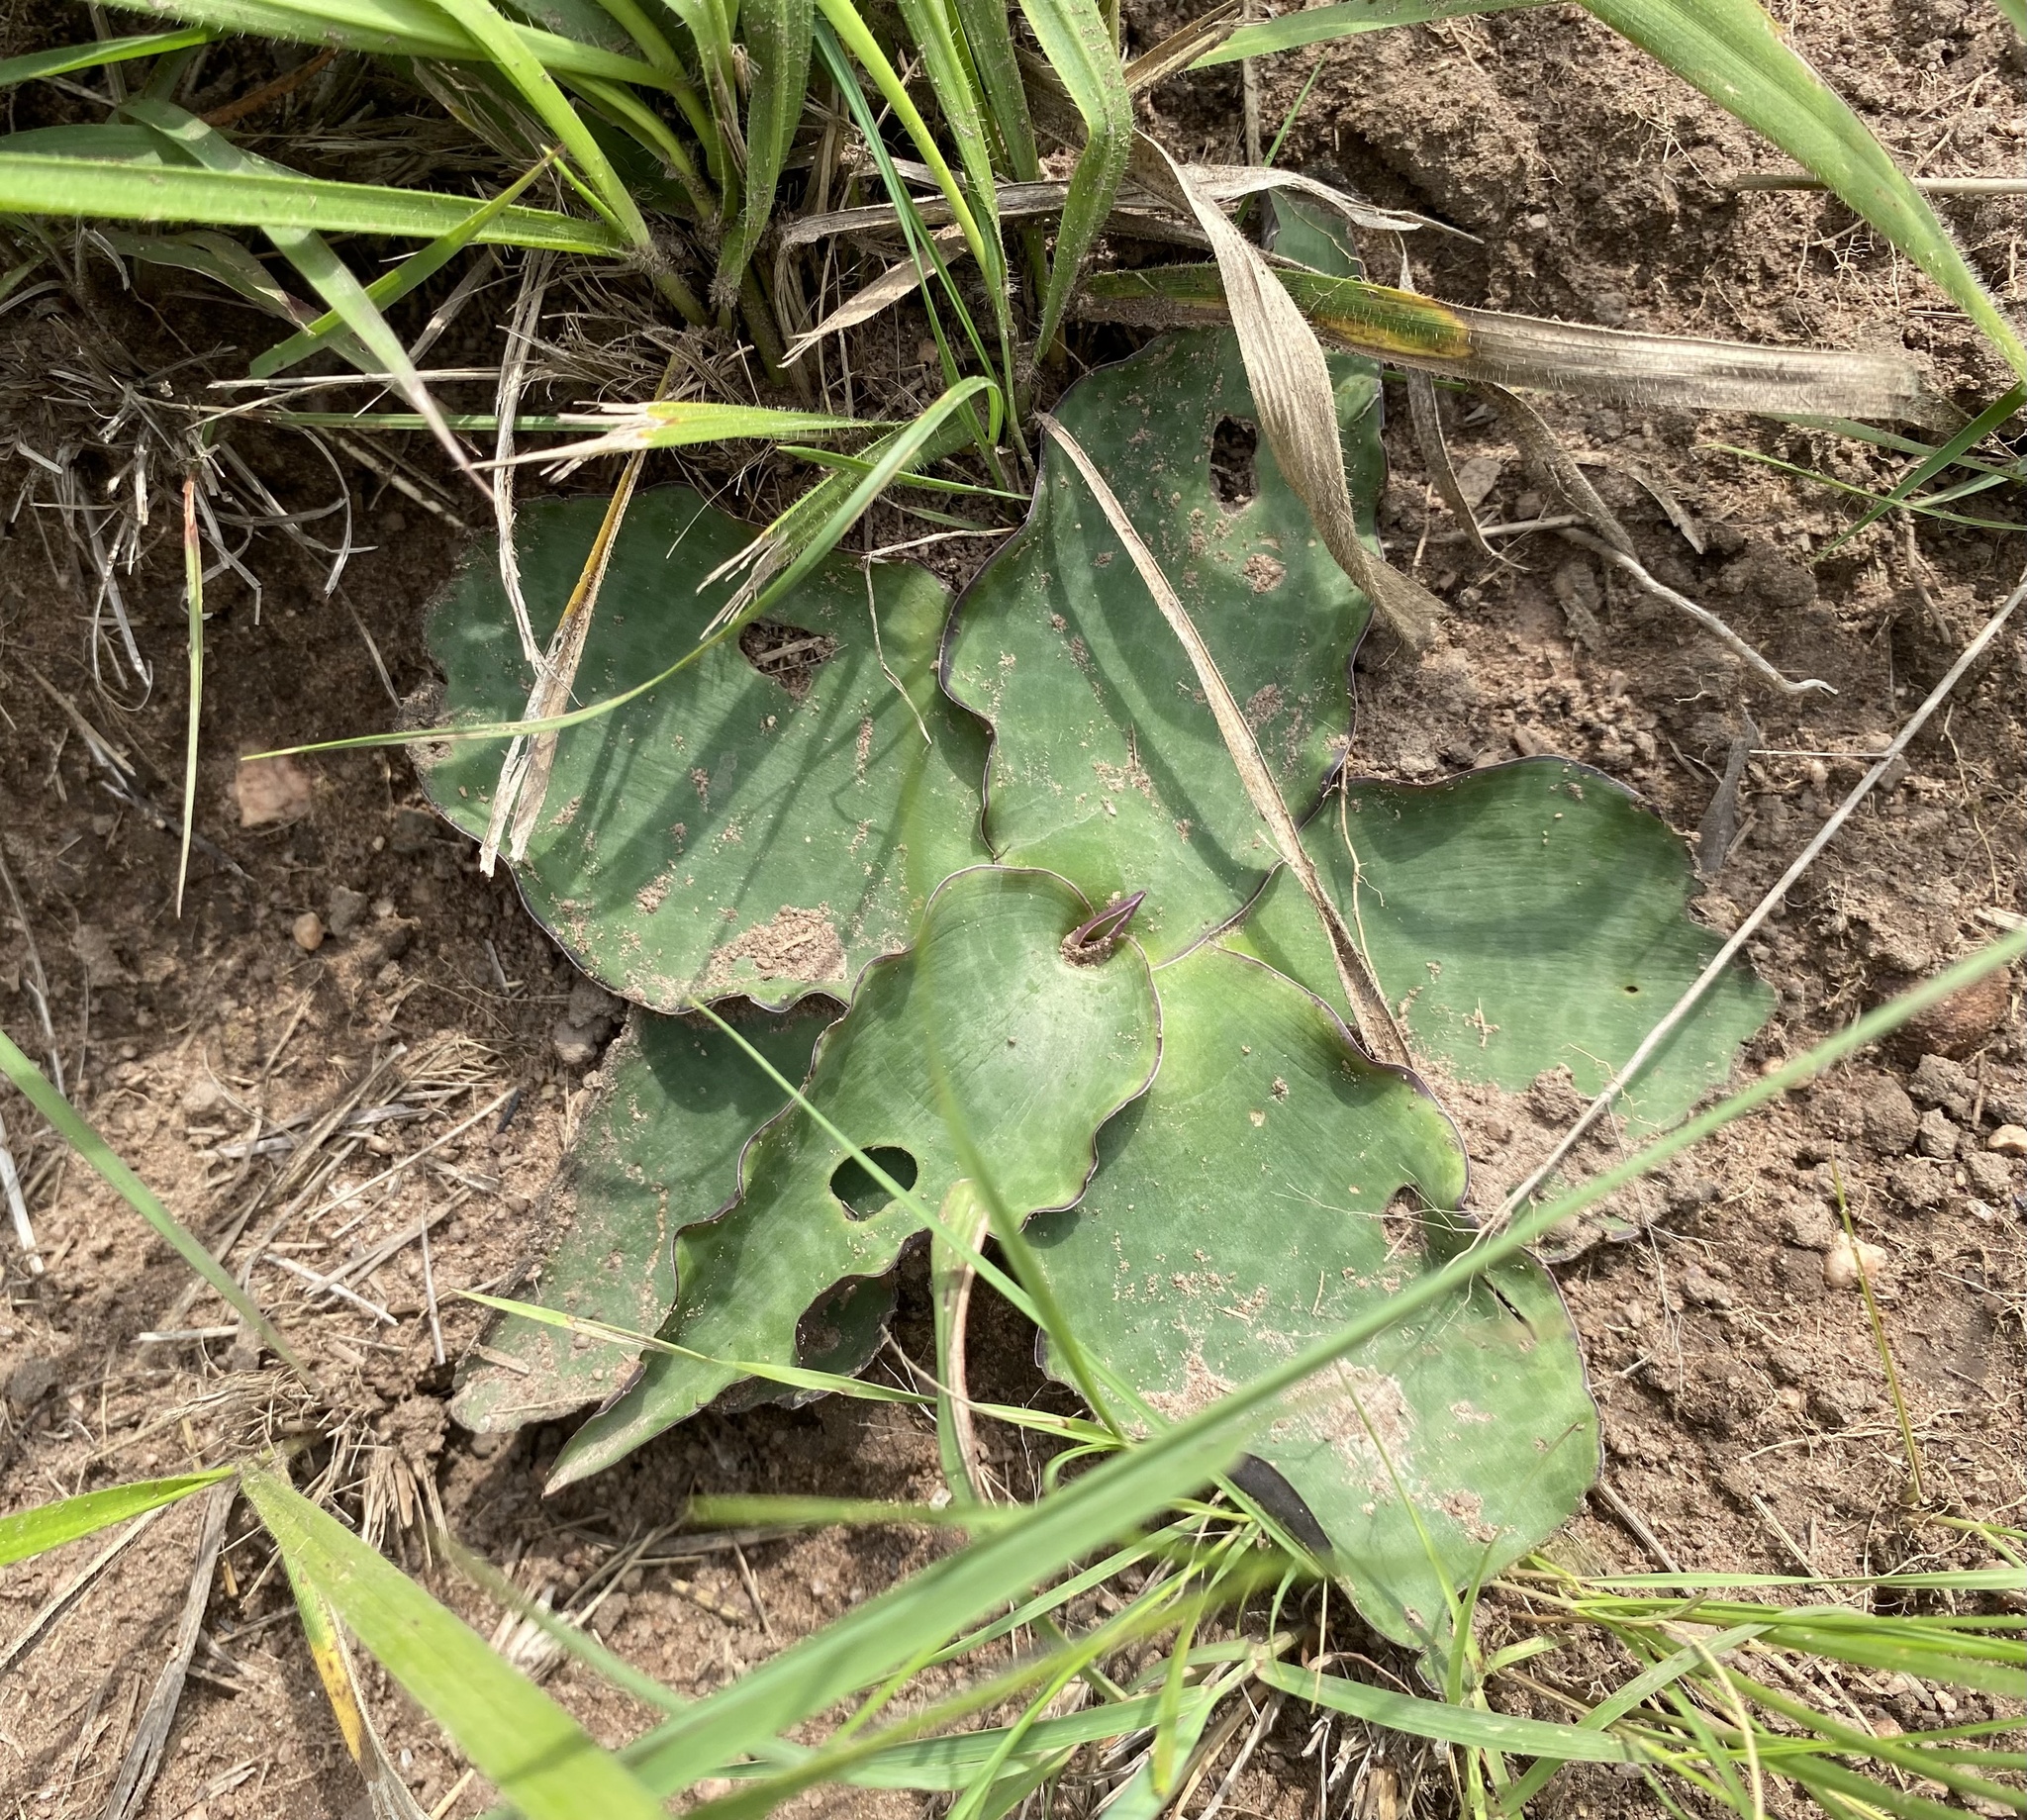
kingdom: Plantae
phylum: Tracheophyta
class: Liliopsida
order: Asparagales
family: Asparagaceae
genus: Ledebouria
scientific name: Ledebouria ovatifolia
